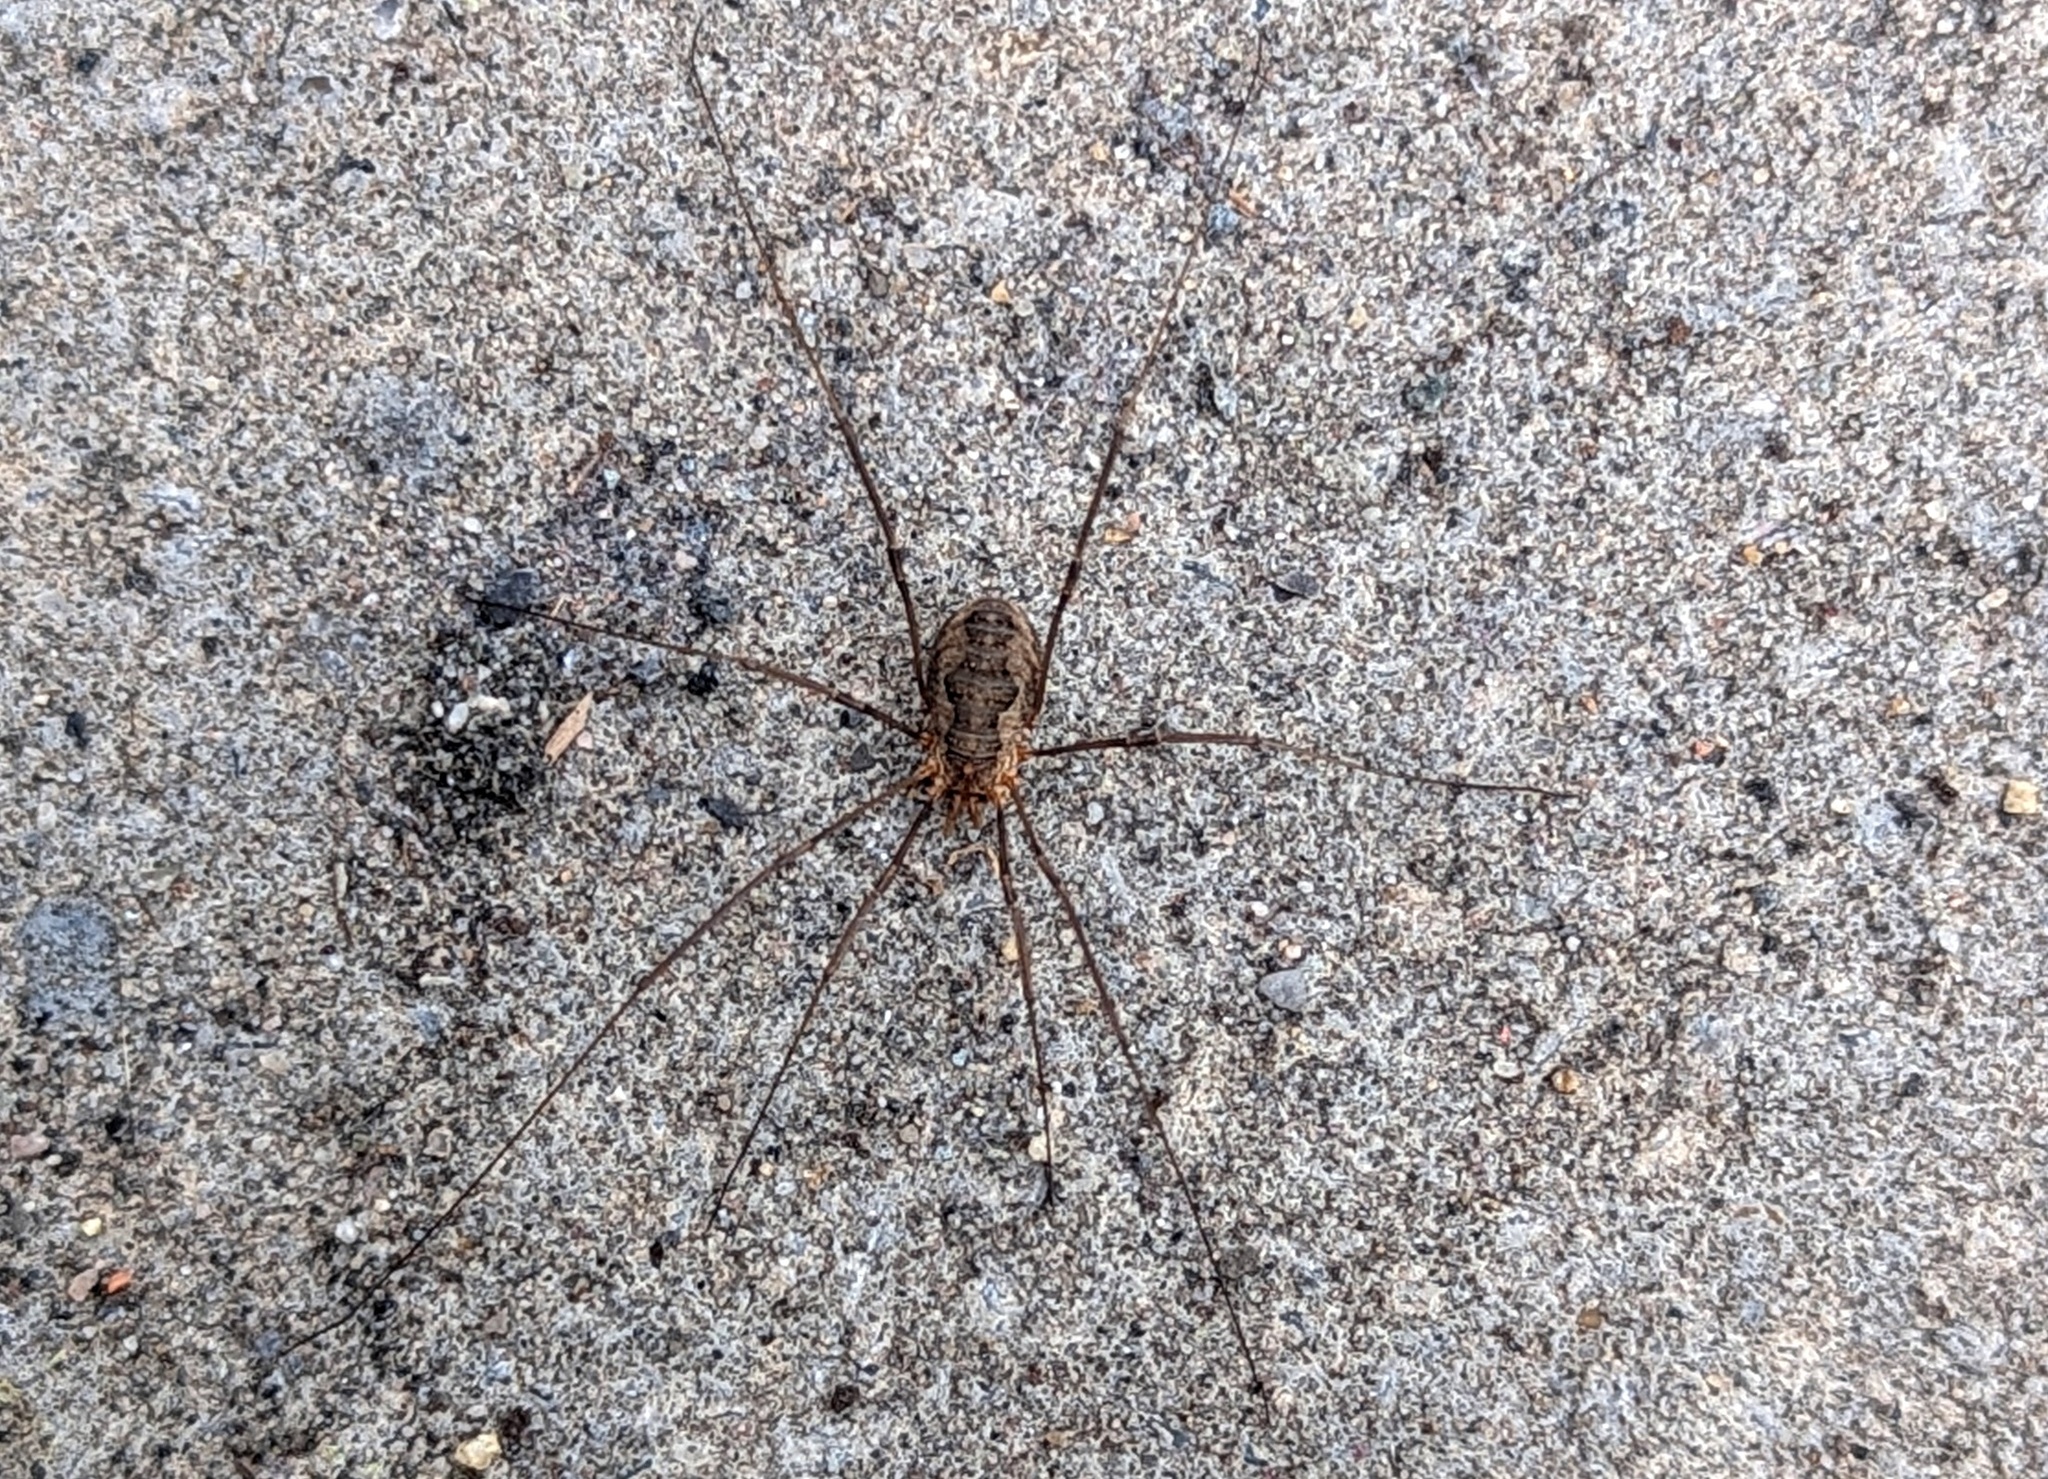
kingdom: Animalia
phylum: Arthropoda
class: Arachnida
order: Opiliones
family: Phalangiidae
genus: Phalangium
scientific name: Phalangium opilio
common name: Daddy longleg
